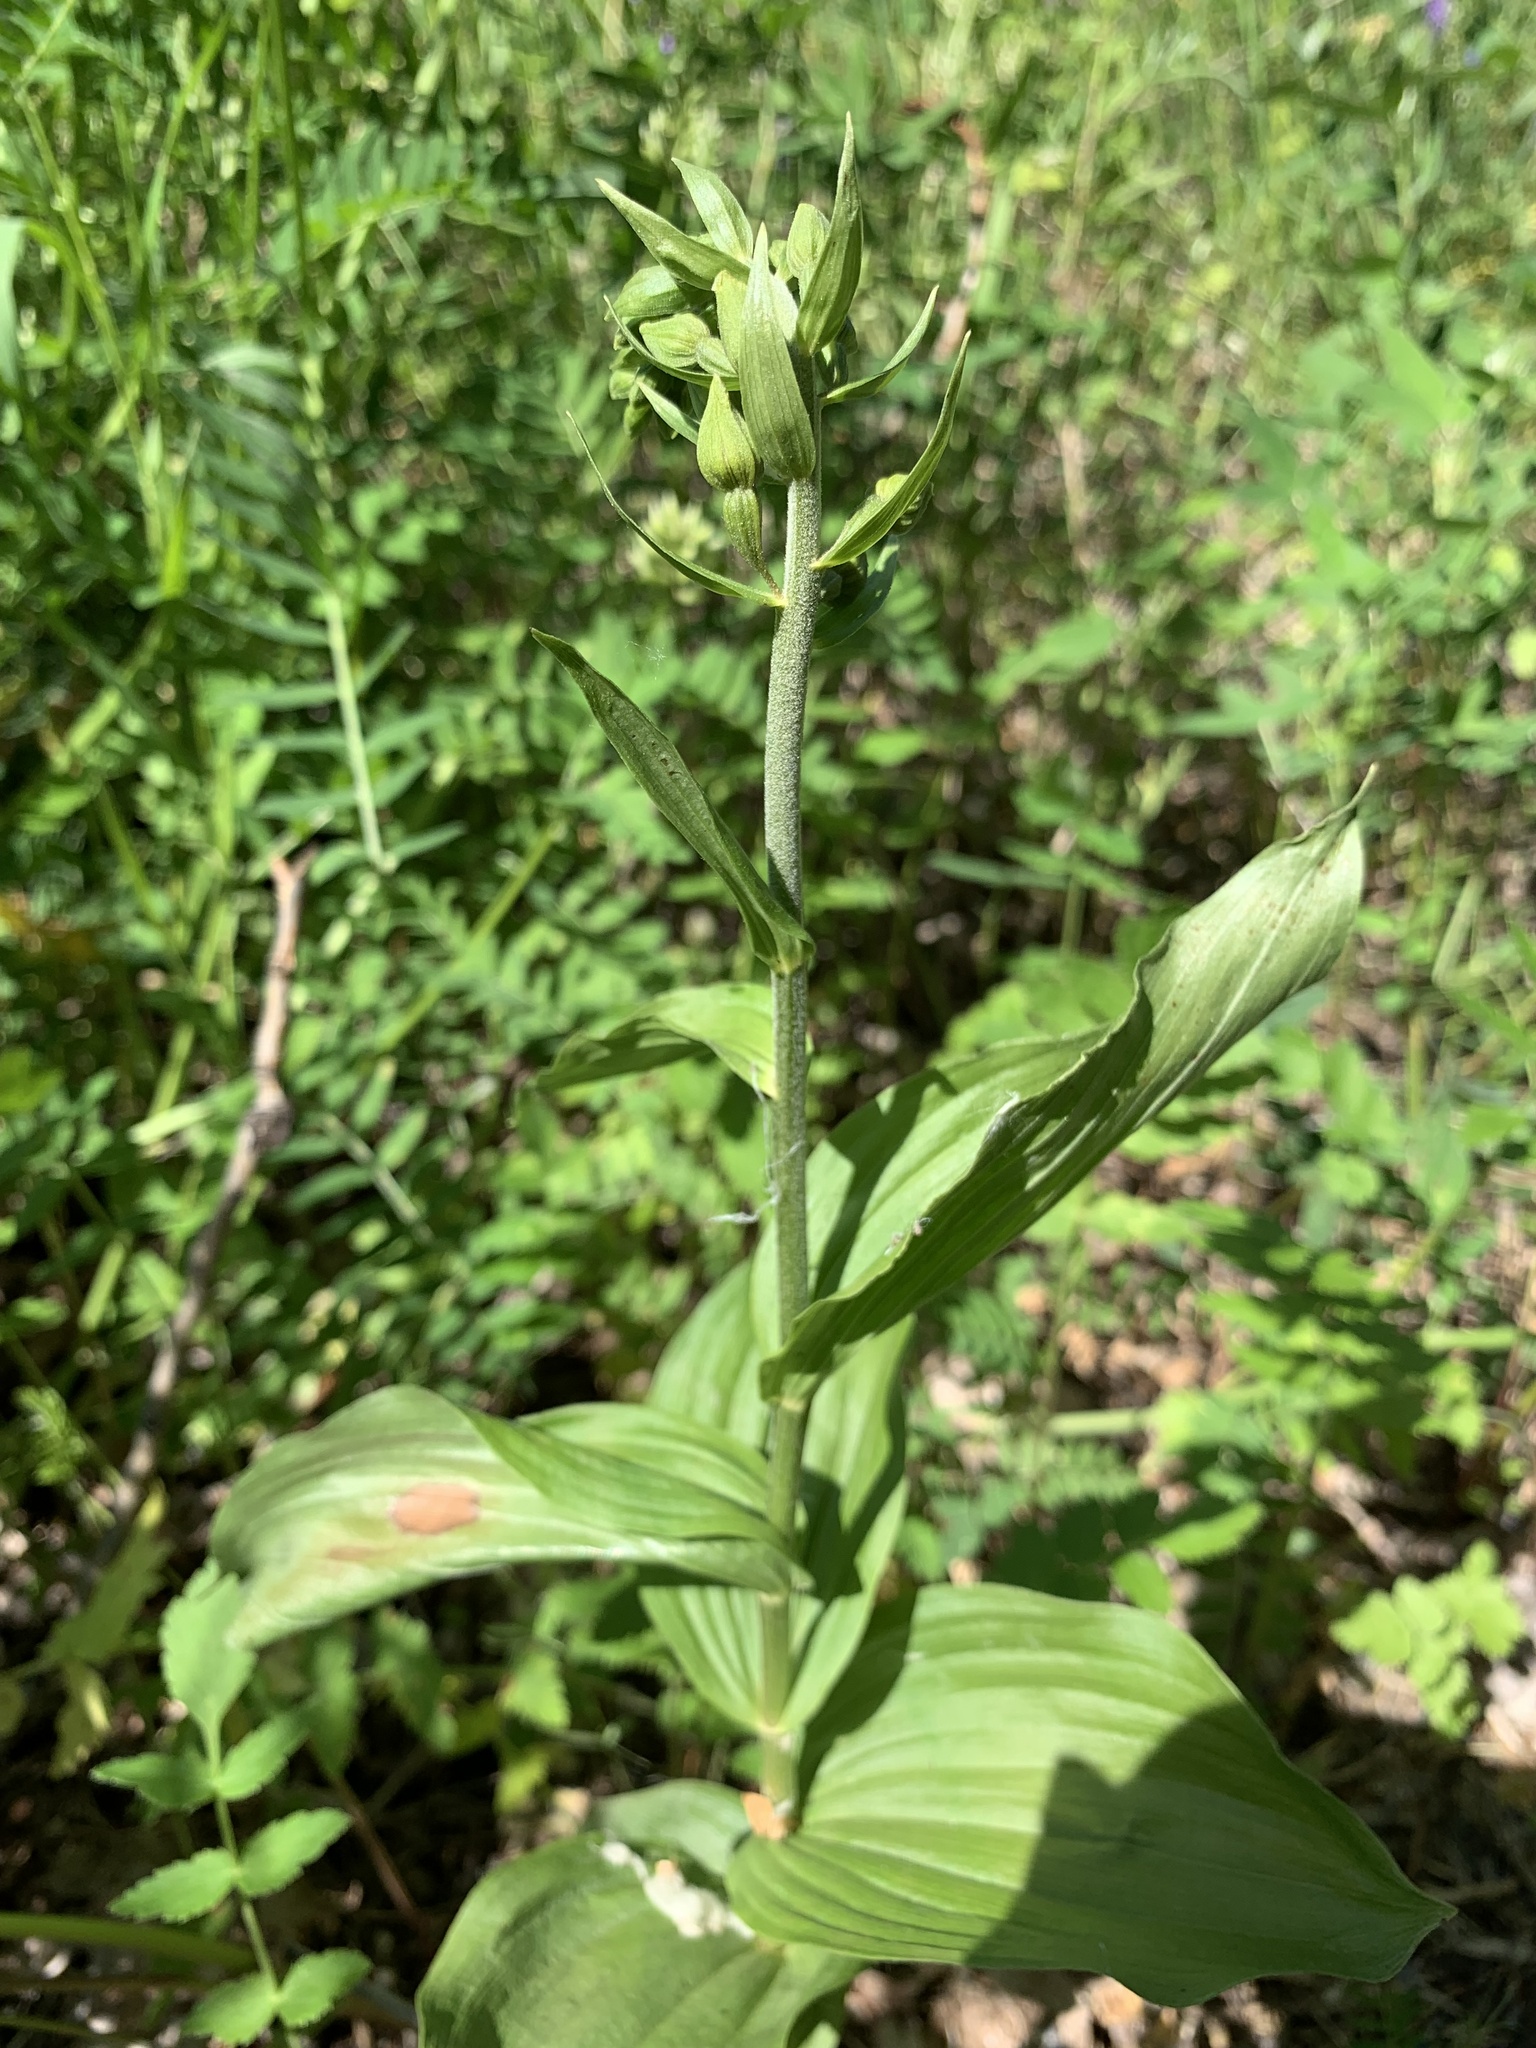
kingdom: Plantae
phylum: Tracheophyta
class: Liliopsida
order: Asparagales
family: Orchidaceae
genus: Epipactis
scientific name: Epipactis helleborine
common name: Broad-leaved helleborine
